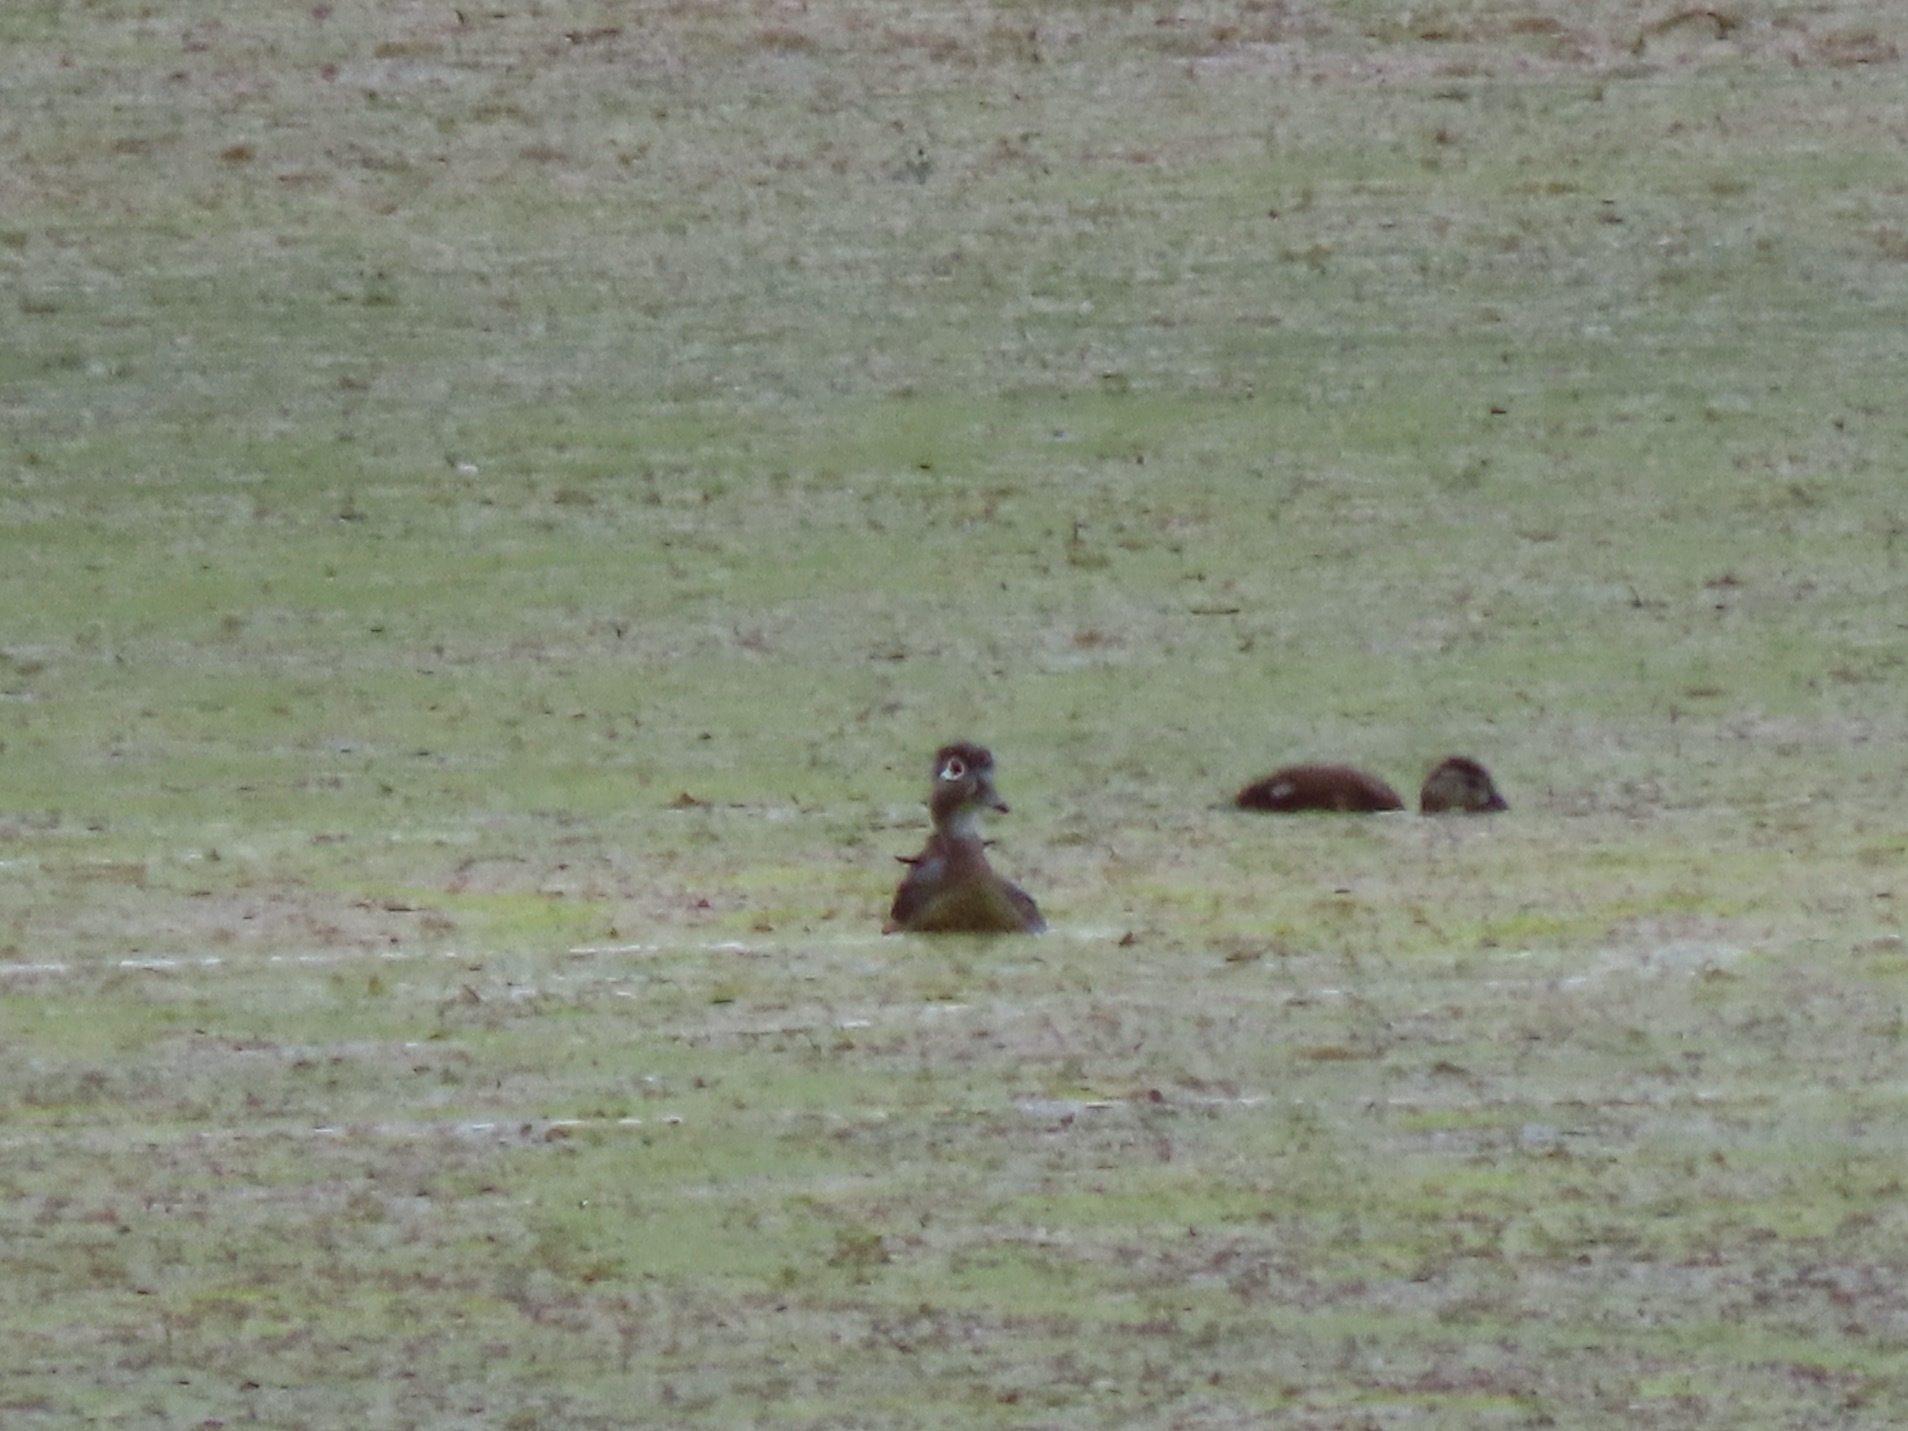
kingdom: Animalia
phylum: Chordata
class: Aves
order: Anseriformes
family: Anatidae
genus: Aix
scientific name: Aix sponsa
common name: Wood duck
